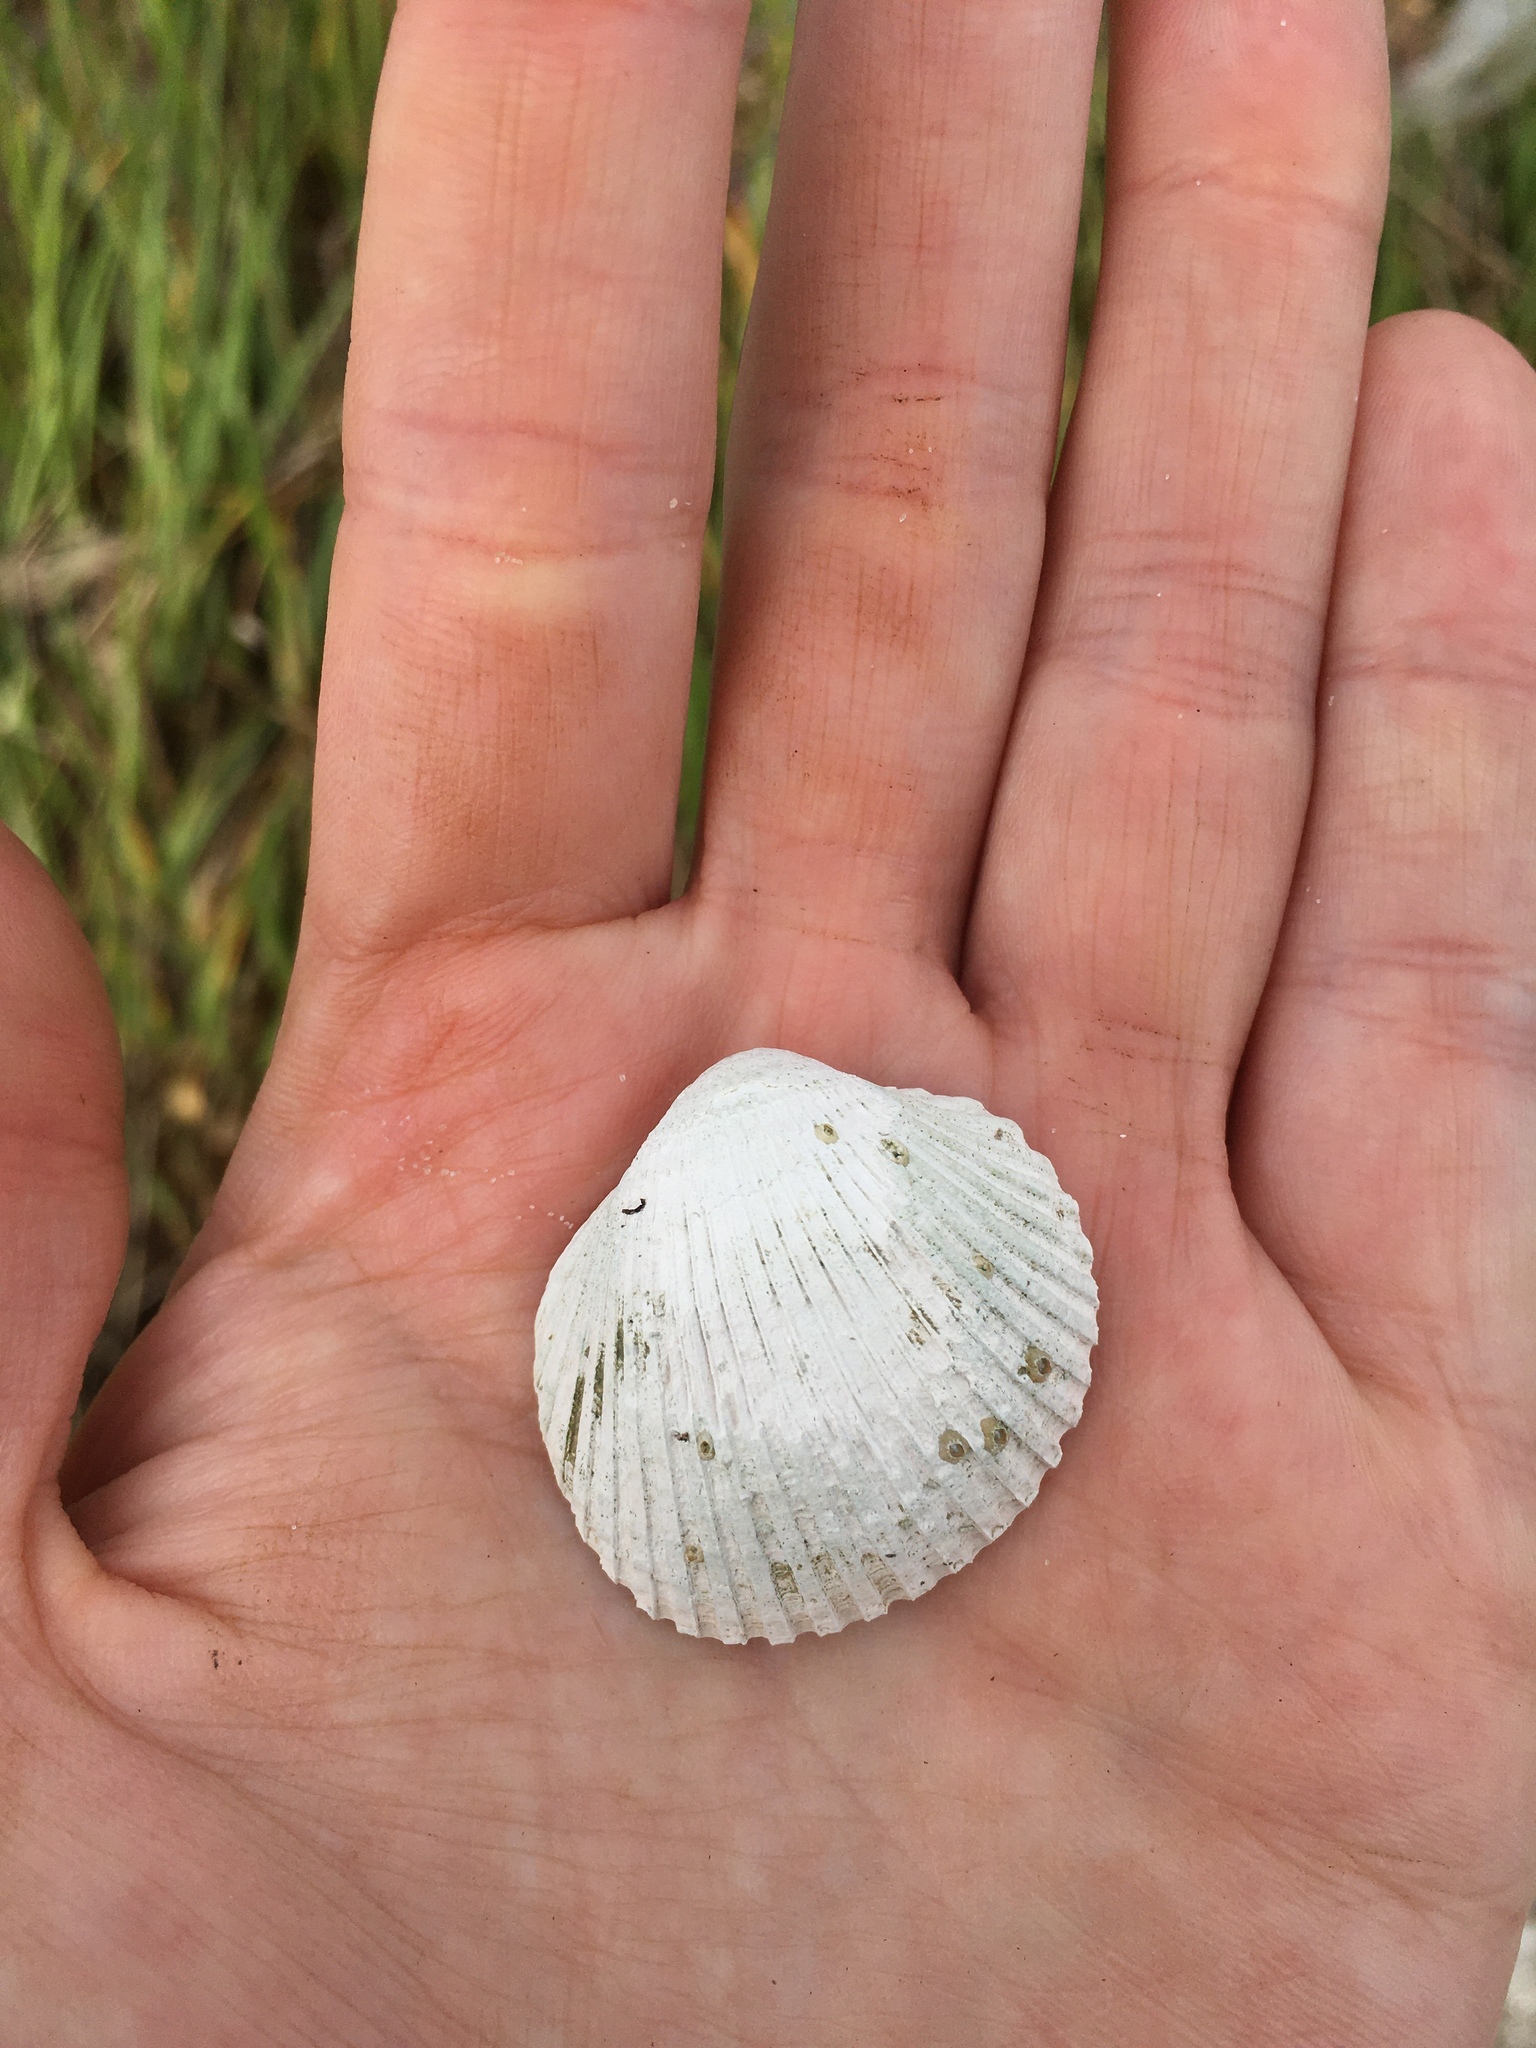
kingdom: Animalia
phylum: Mollusca
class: Bivalvia
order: Arcida
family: Arcidae
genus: Lunarca
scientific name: Lunarca ovalis
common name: Blood ark
